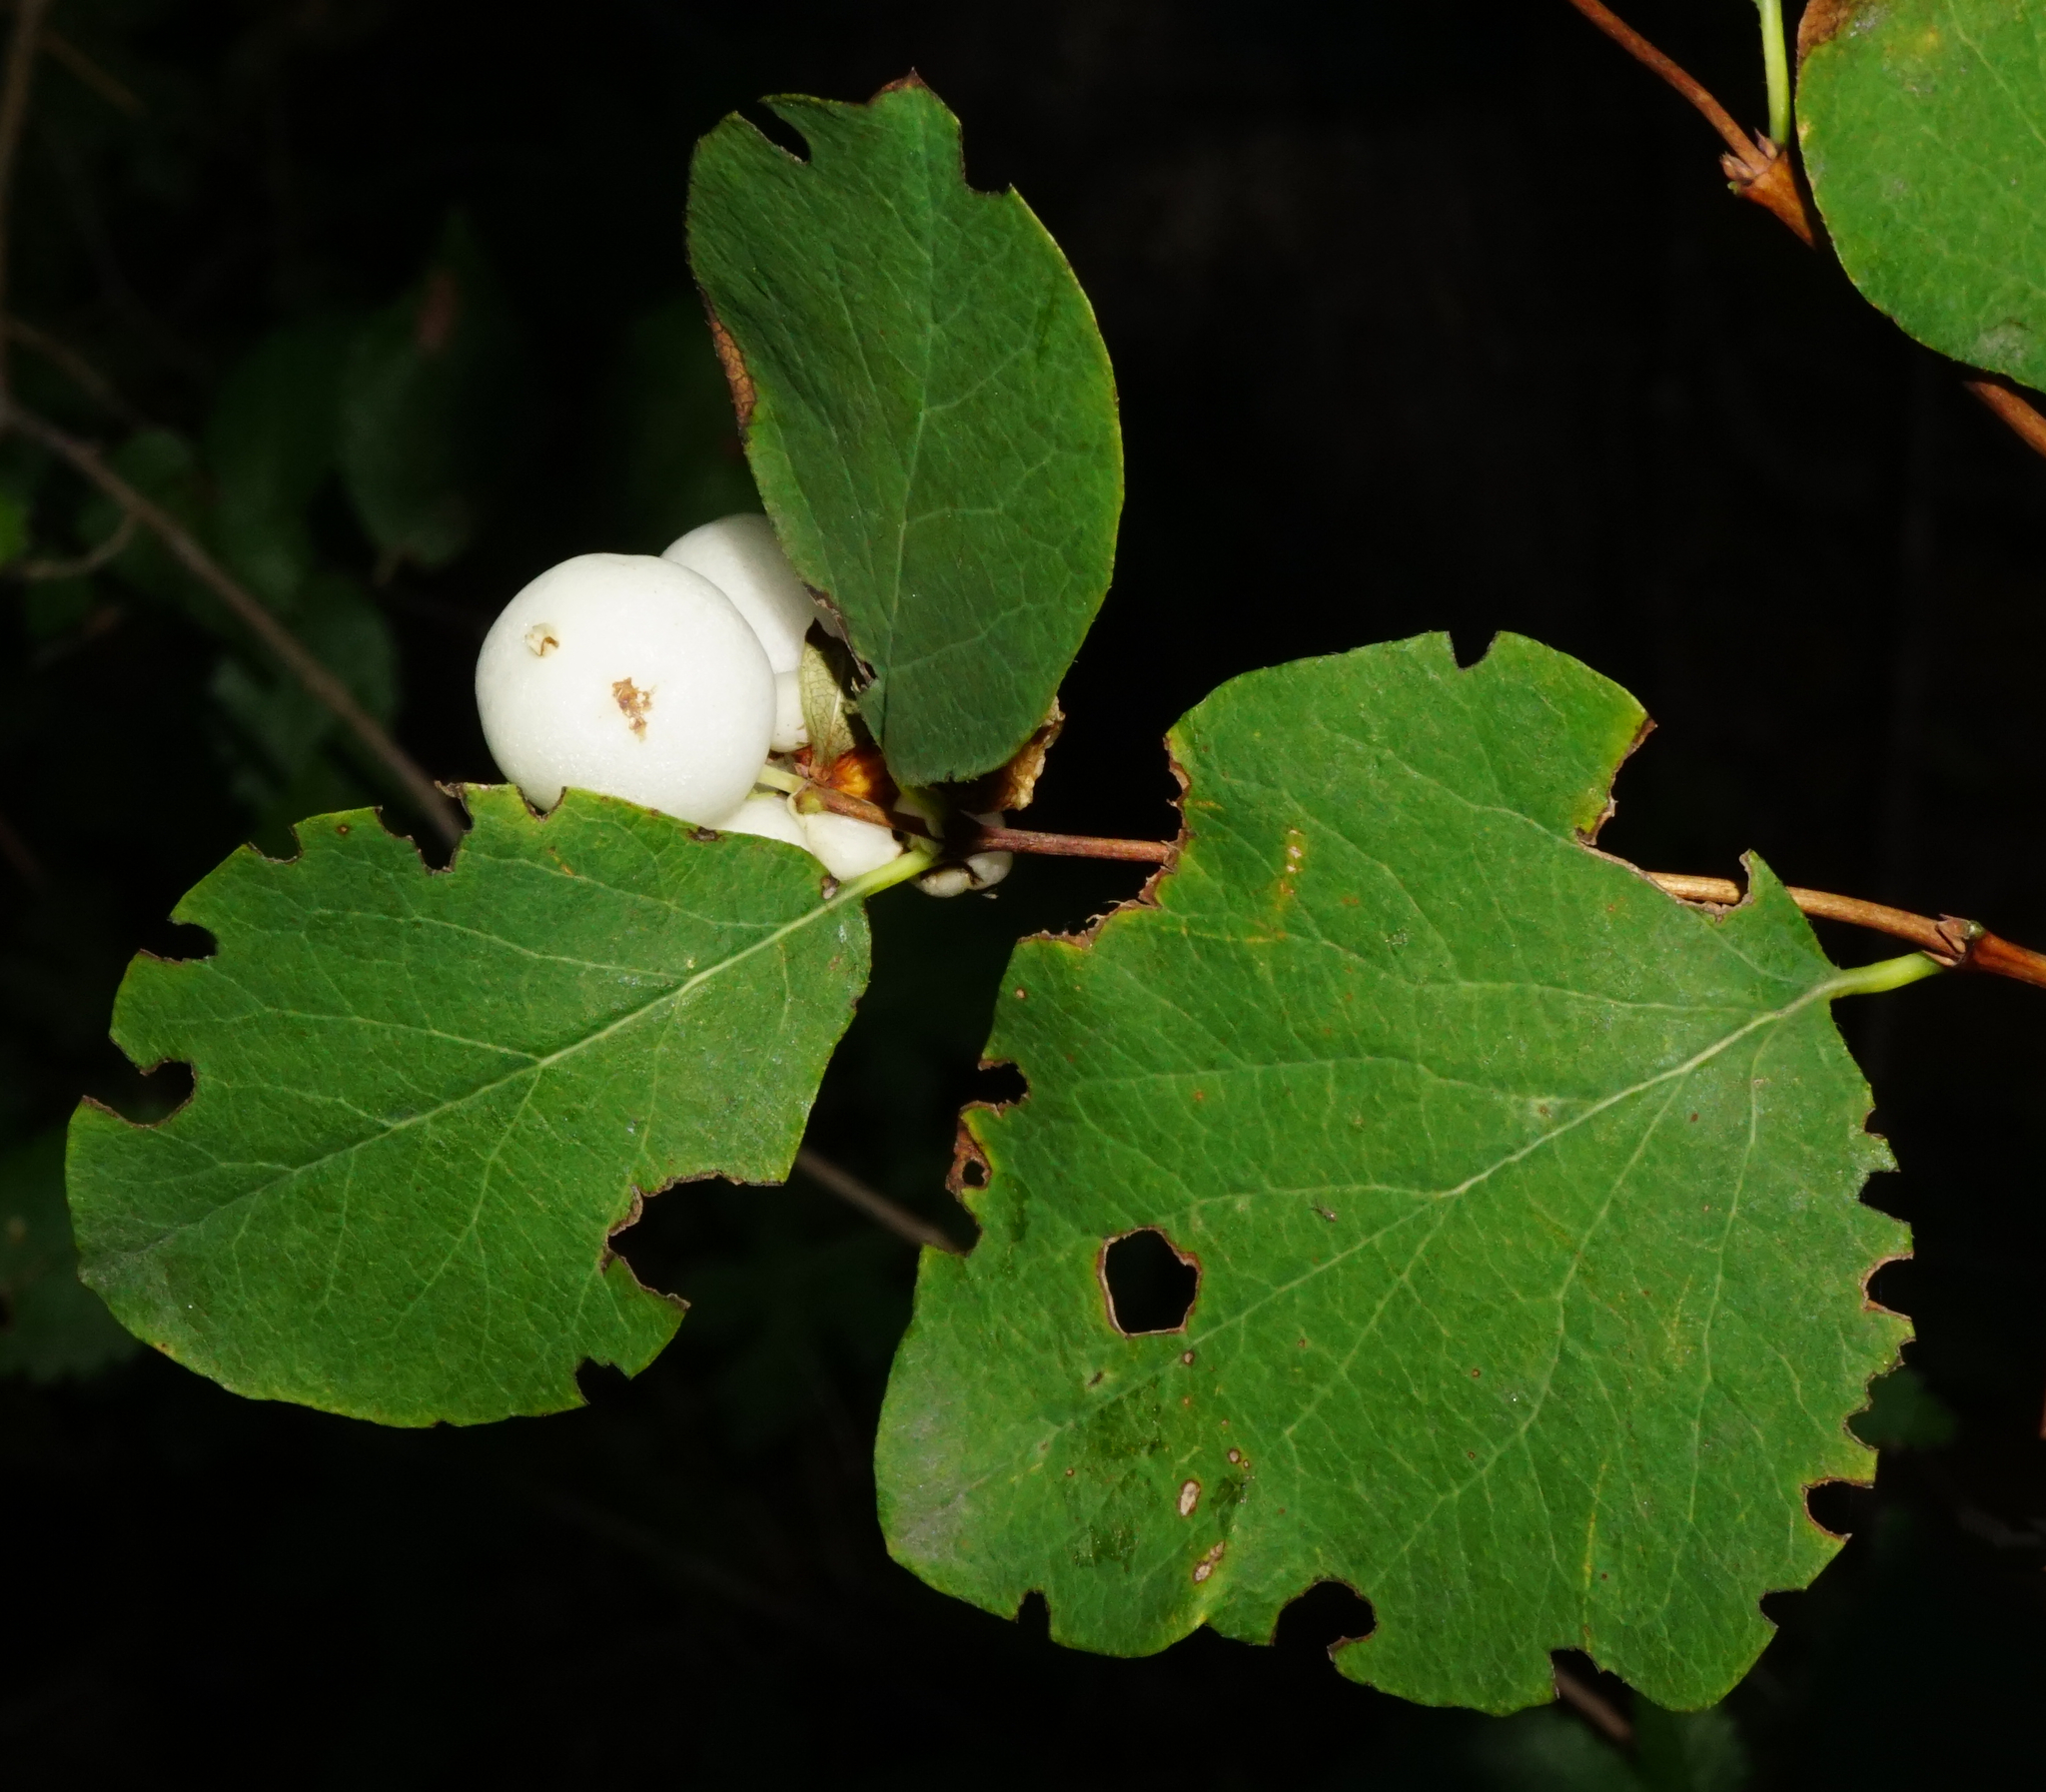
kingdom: Plantae
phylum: Tracheophyta
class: Magnoliopsida
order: Dipsacales
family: Caprifoliaceae
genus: Symphoricarpos
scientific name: Symphoricarpos albus
